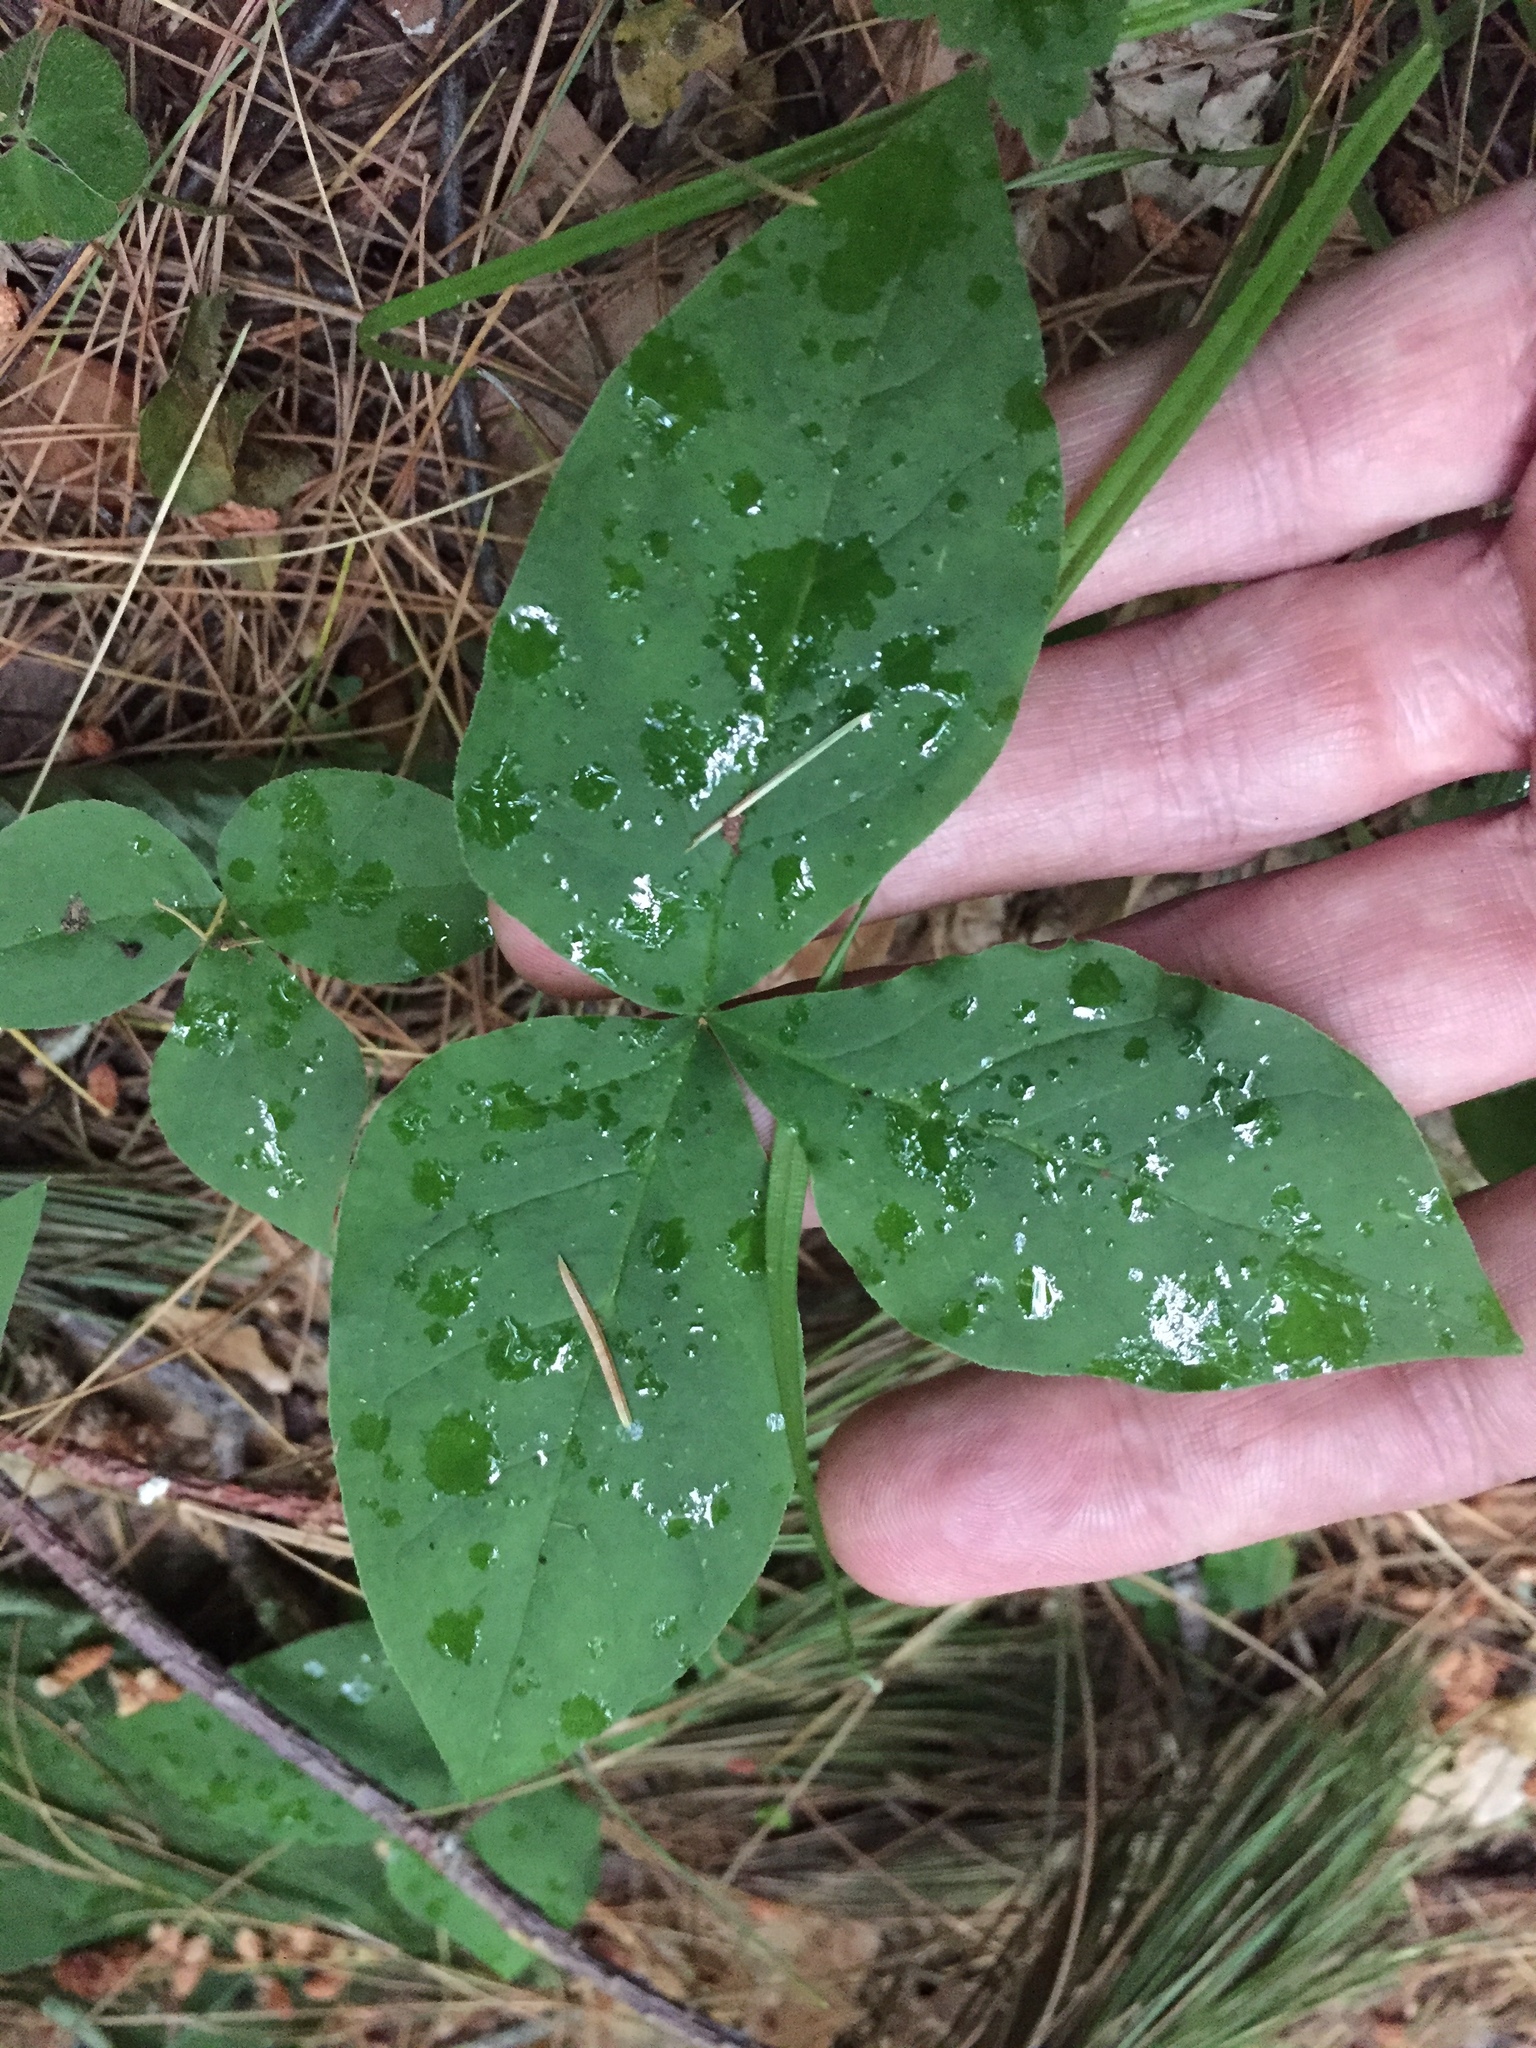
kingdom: Plantae
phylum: Tracheophyta
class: Liliopsida
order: Alismatales
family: Araceae
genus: Arisaema
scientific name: Arisaema triphyllum
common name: Jack-in-the-pulpit
